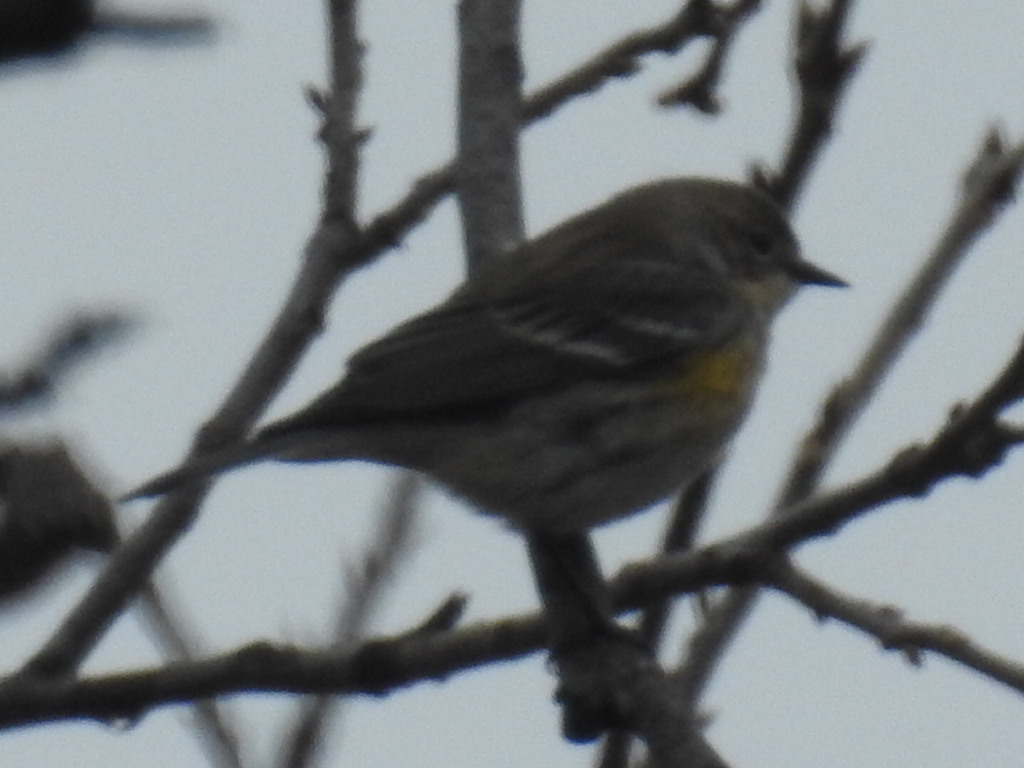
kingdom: Animalia
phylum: Chordata
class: Aves
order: Passeriformes
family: Parulidae
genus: Setophaga
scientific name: Setophaga coronata
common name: Myrtle warbler
